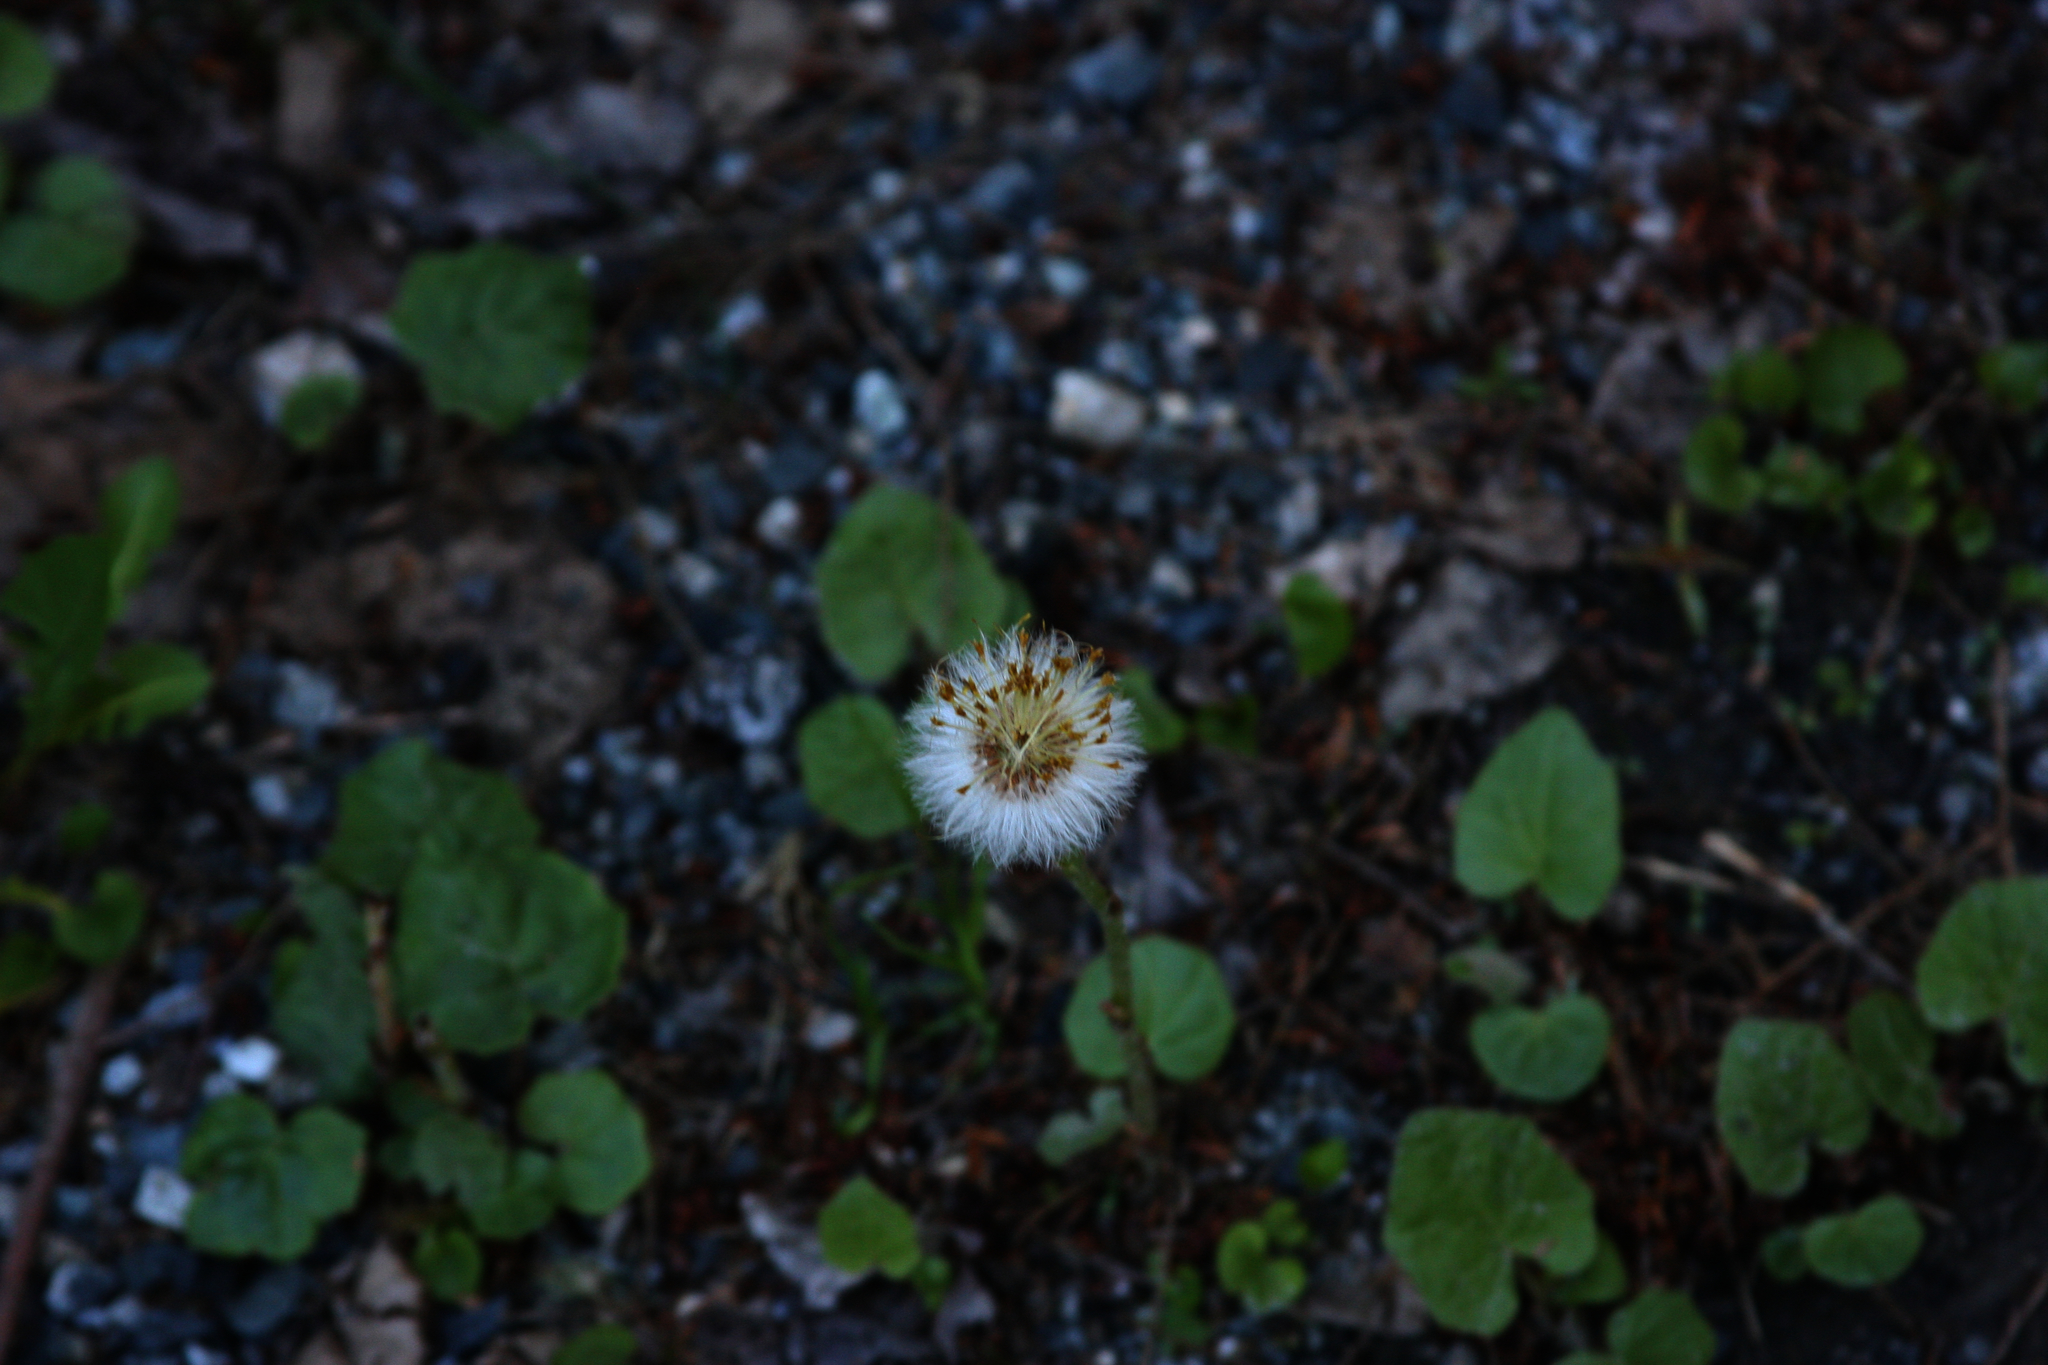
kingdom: Plantae
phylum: Tracheophyta
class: Magnoliopsida
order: Asterales
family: Asteraceae
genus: Tussilago
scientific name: Tussilago farfara
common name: Coltsfoot
